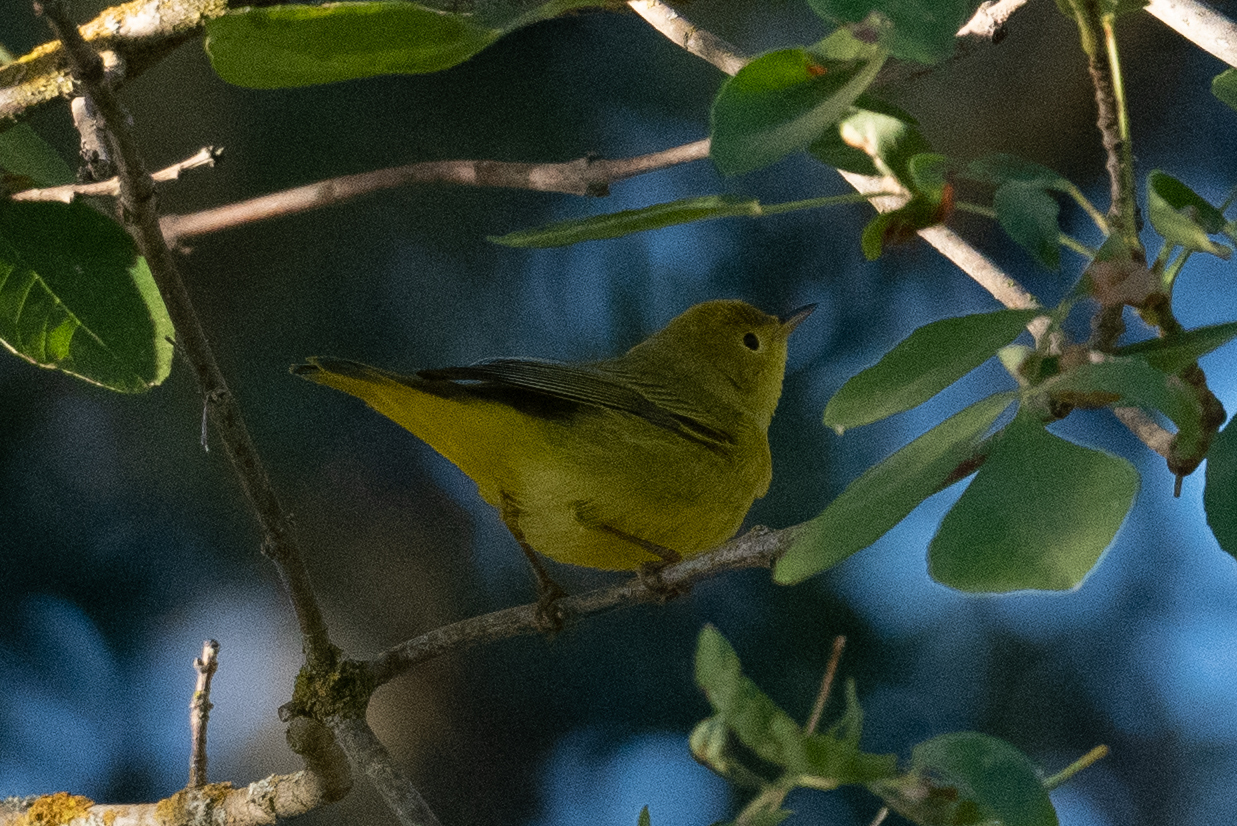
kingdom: Animalia
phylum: Chordata
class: Aves
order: Passeriformes
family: Parulidae
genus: Setophaga
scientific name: Setophaga petechia
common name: Yellow warbler
